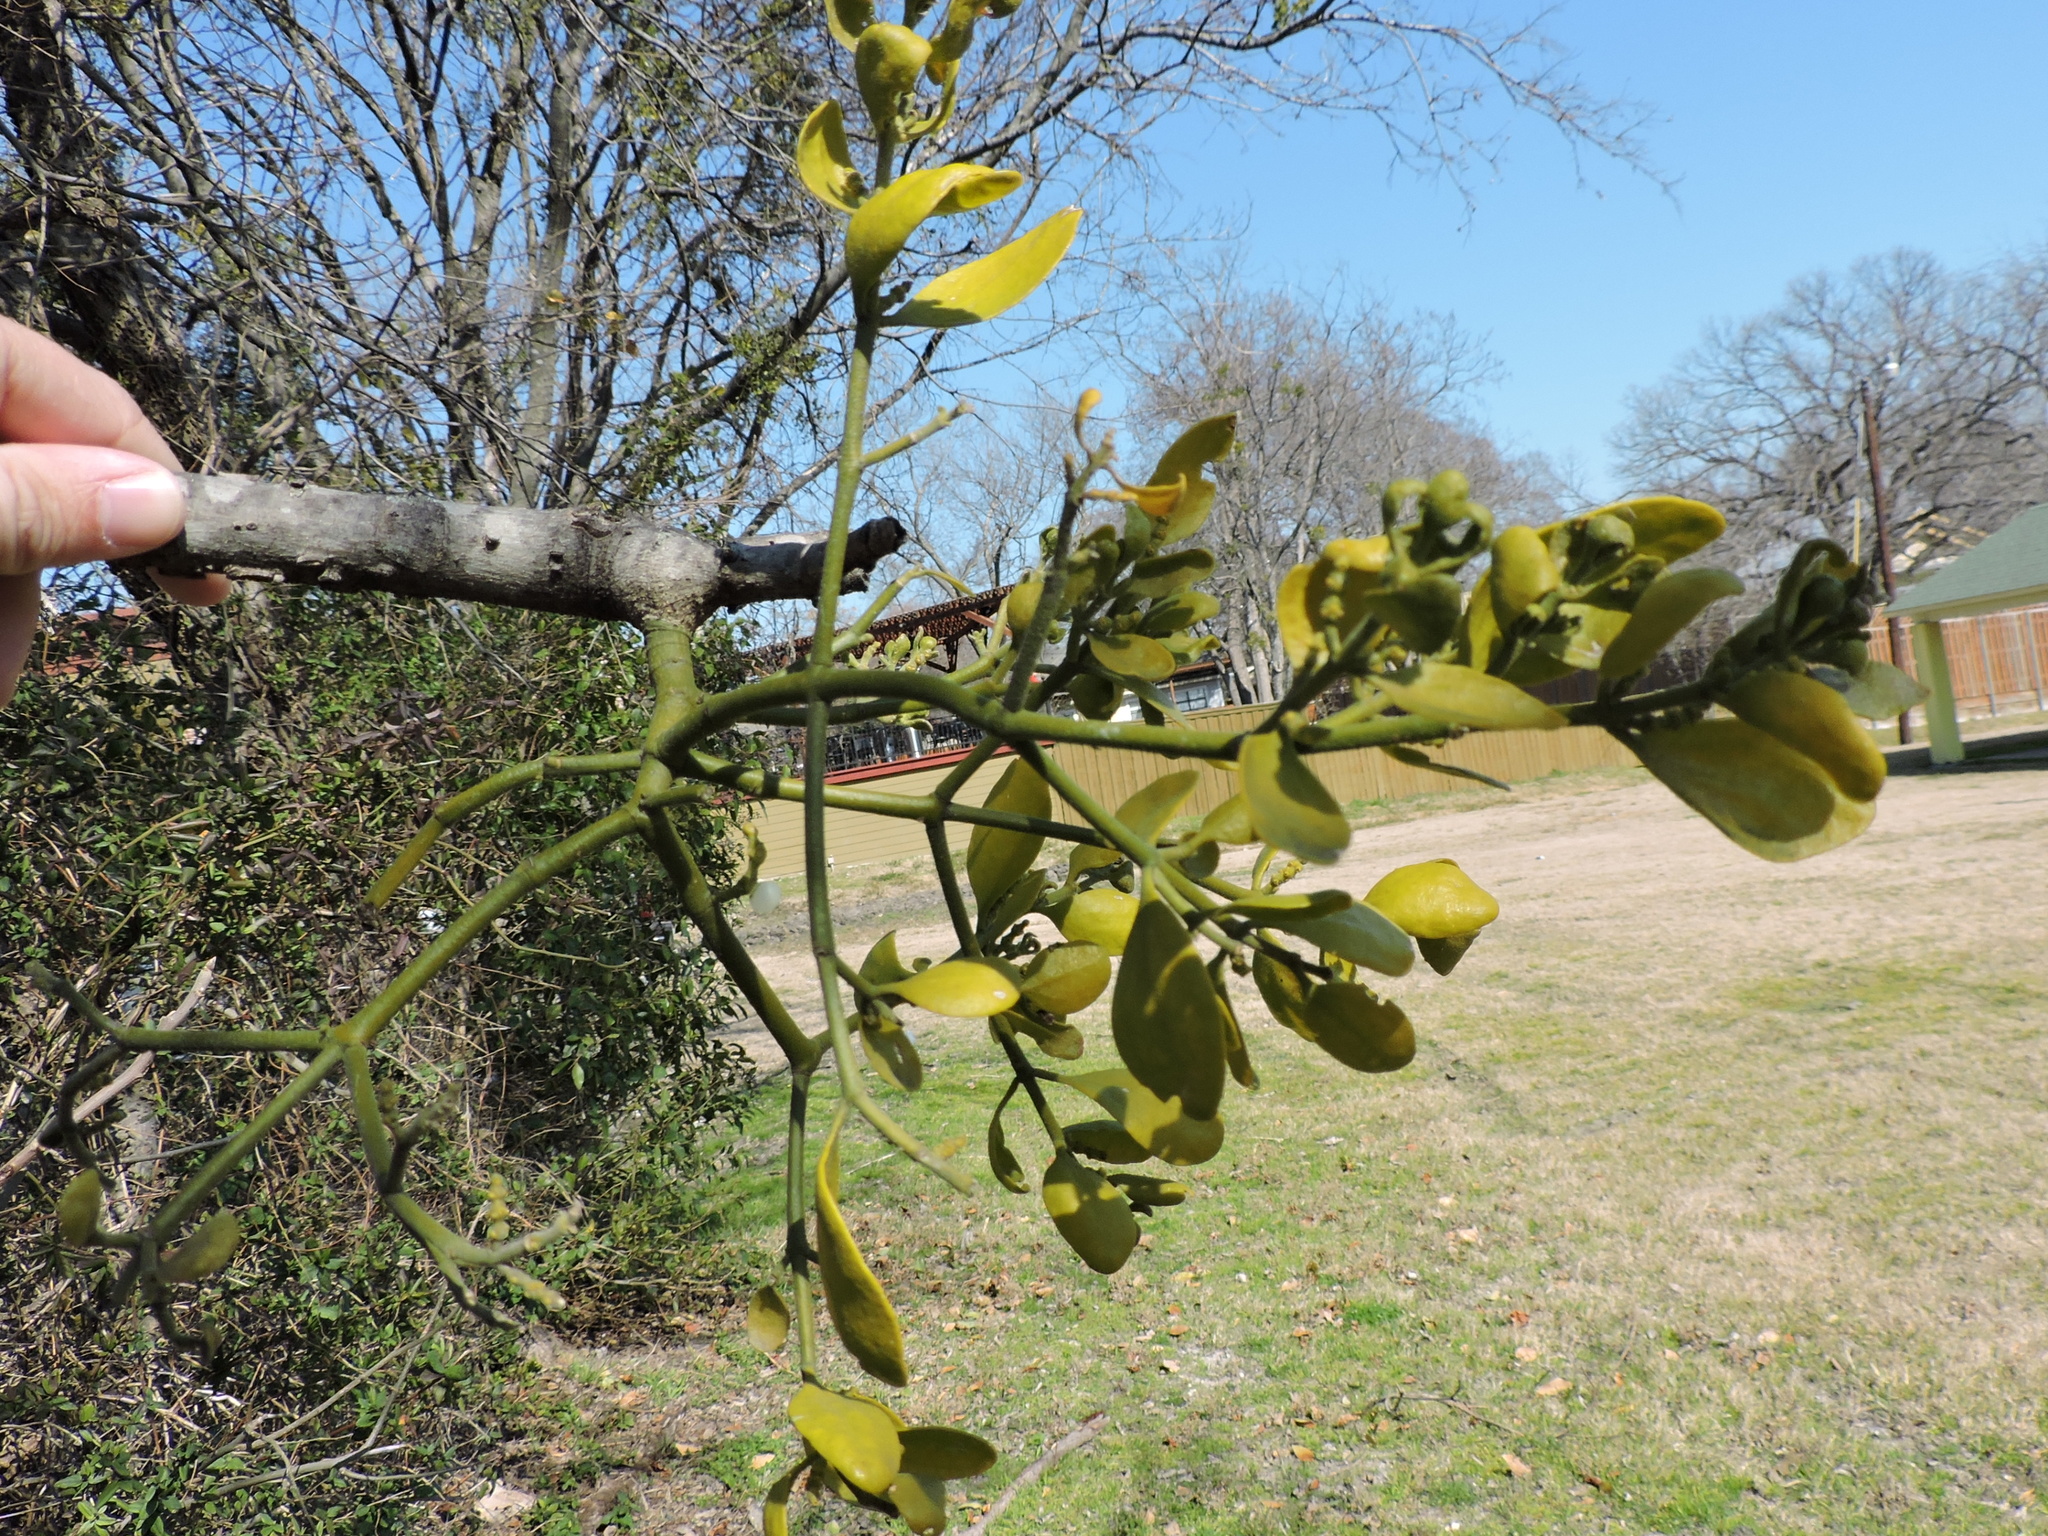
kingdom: Plantae
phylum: Tracheophyta
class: Magnoliopsida
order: Santalales
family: Viscaceae
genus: Phoradendron
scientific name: Phoradendron leucarpum
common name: Pacific mistletoe
